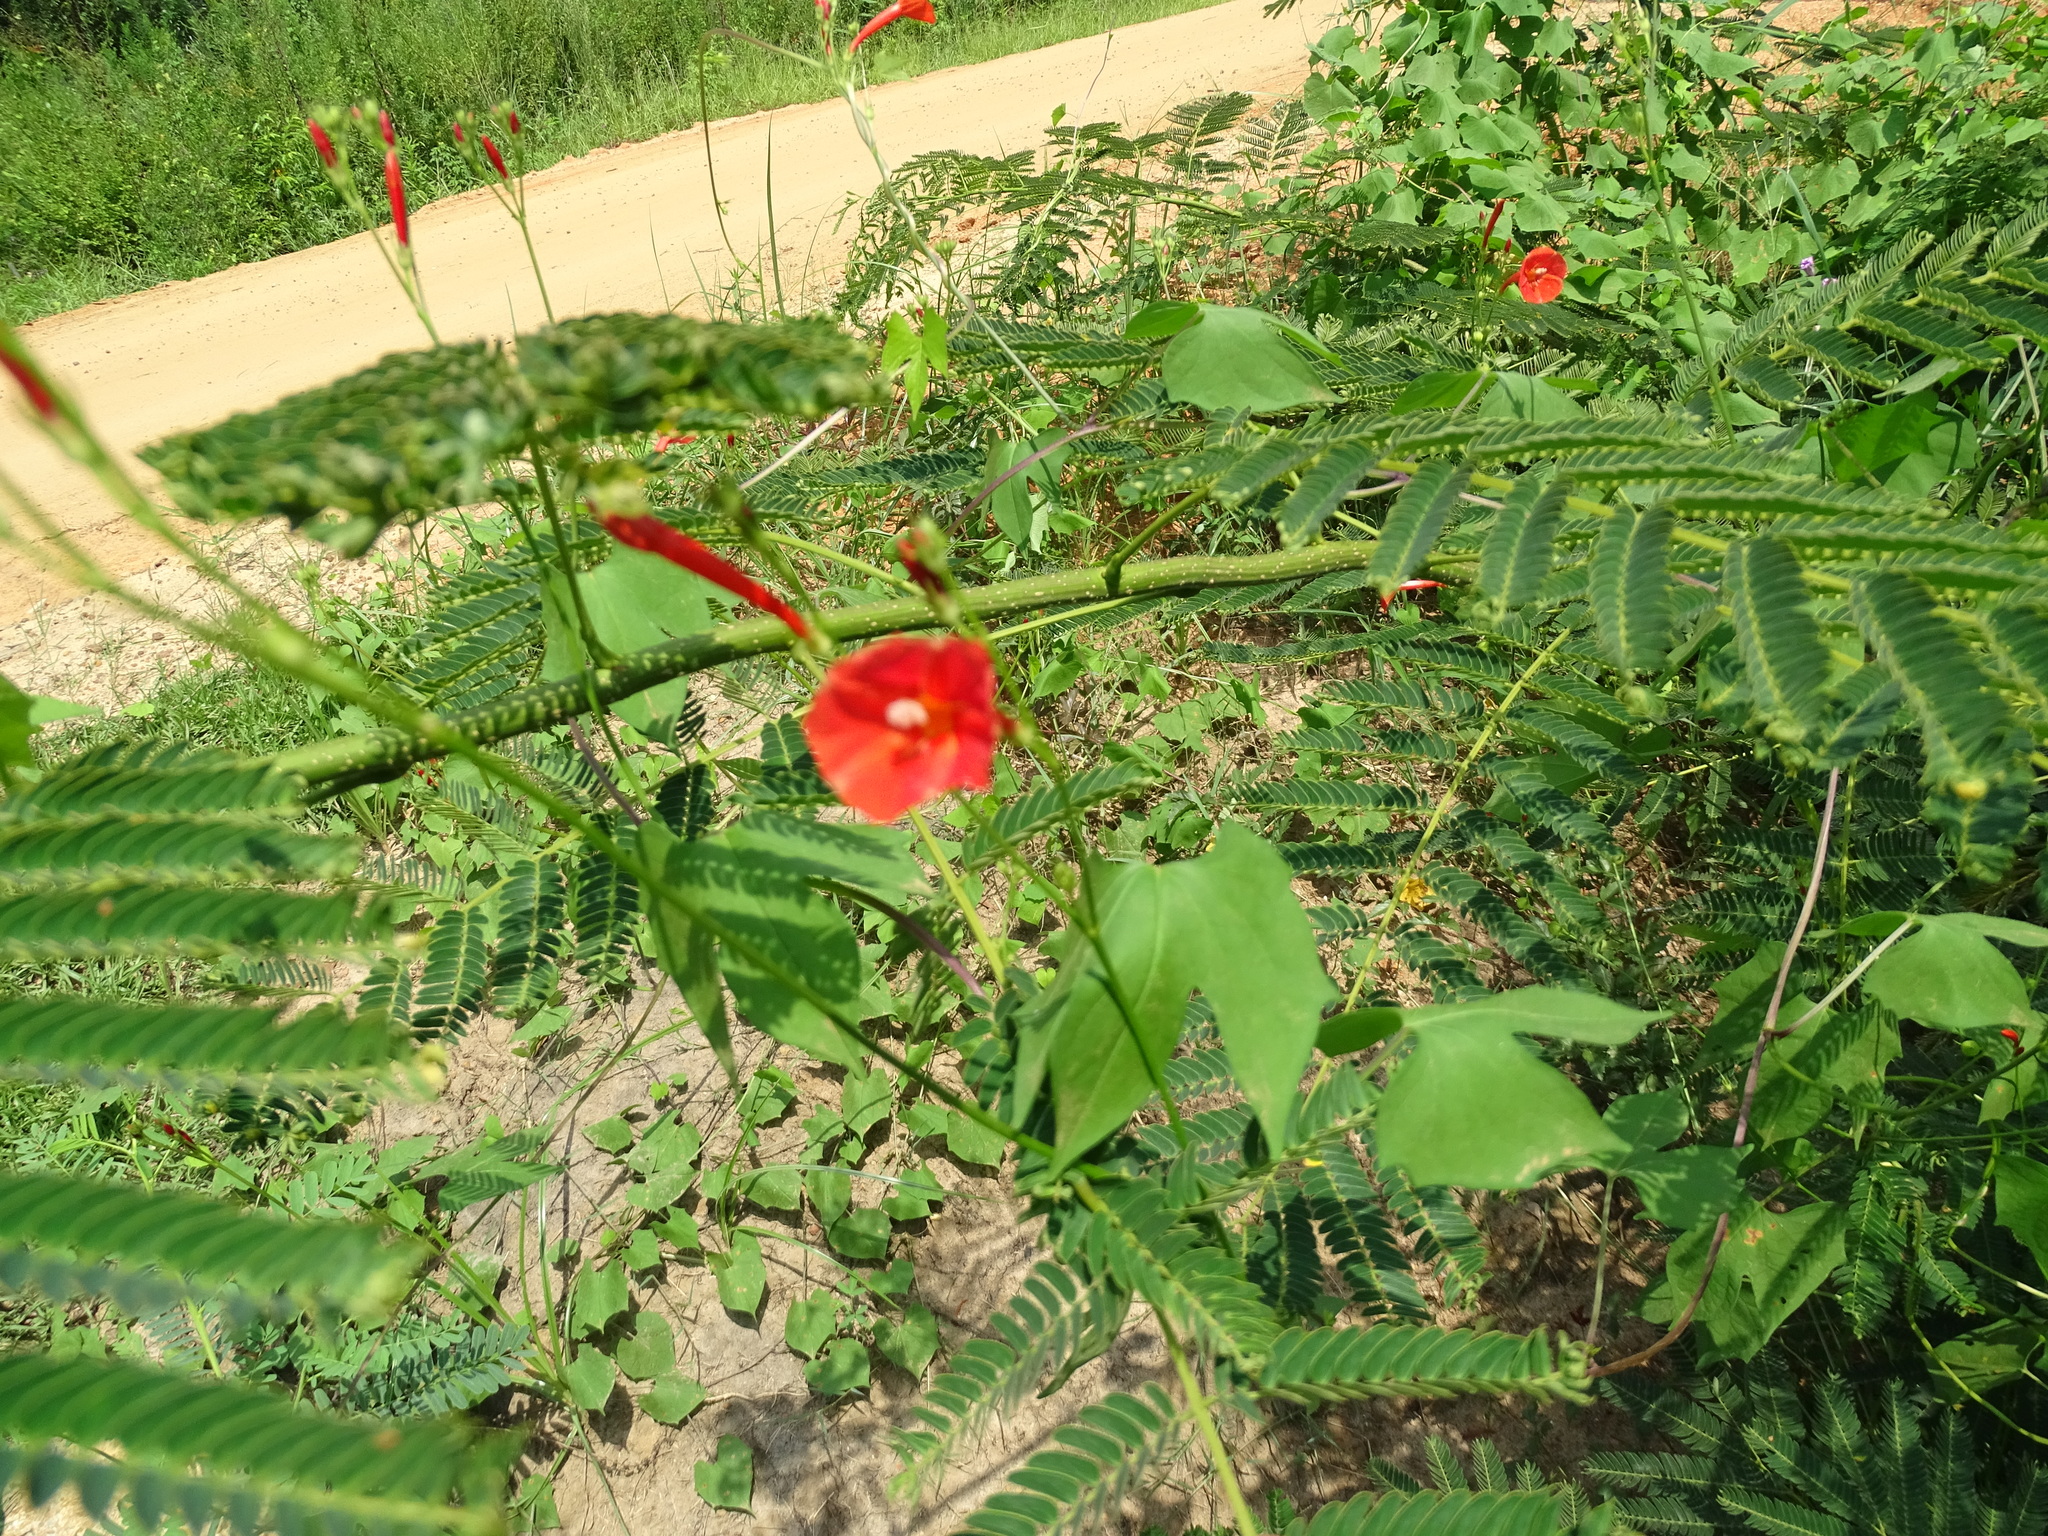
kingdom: Plantae
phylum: Tracheophyta
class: Magnoliopsida
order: Solanales
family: Convolvulaceae
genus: Ipomoea
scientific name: Ipomoea hederifolia
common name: Ivy-leaf morning-glory
